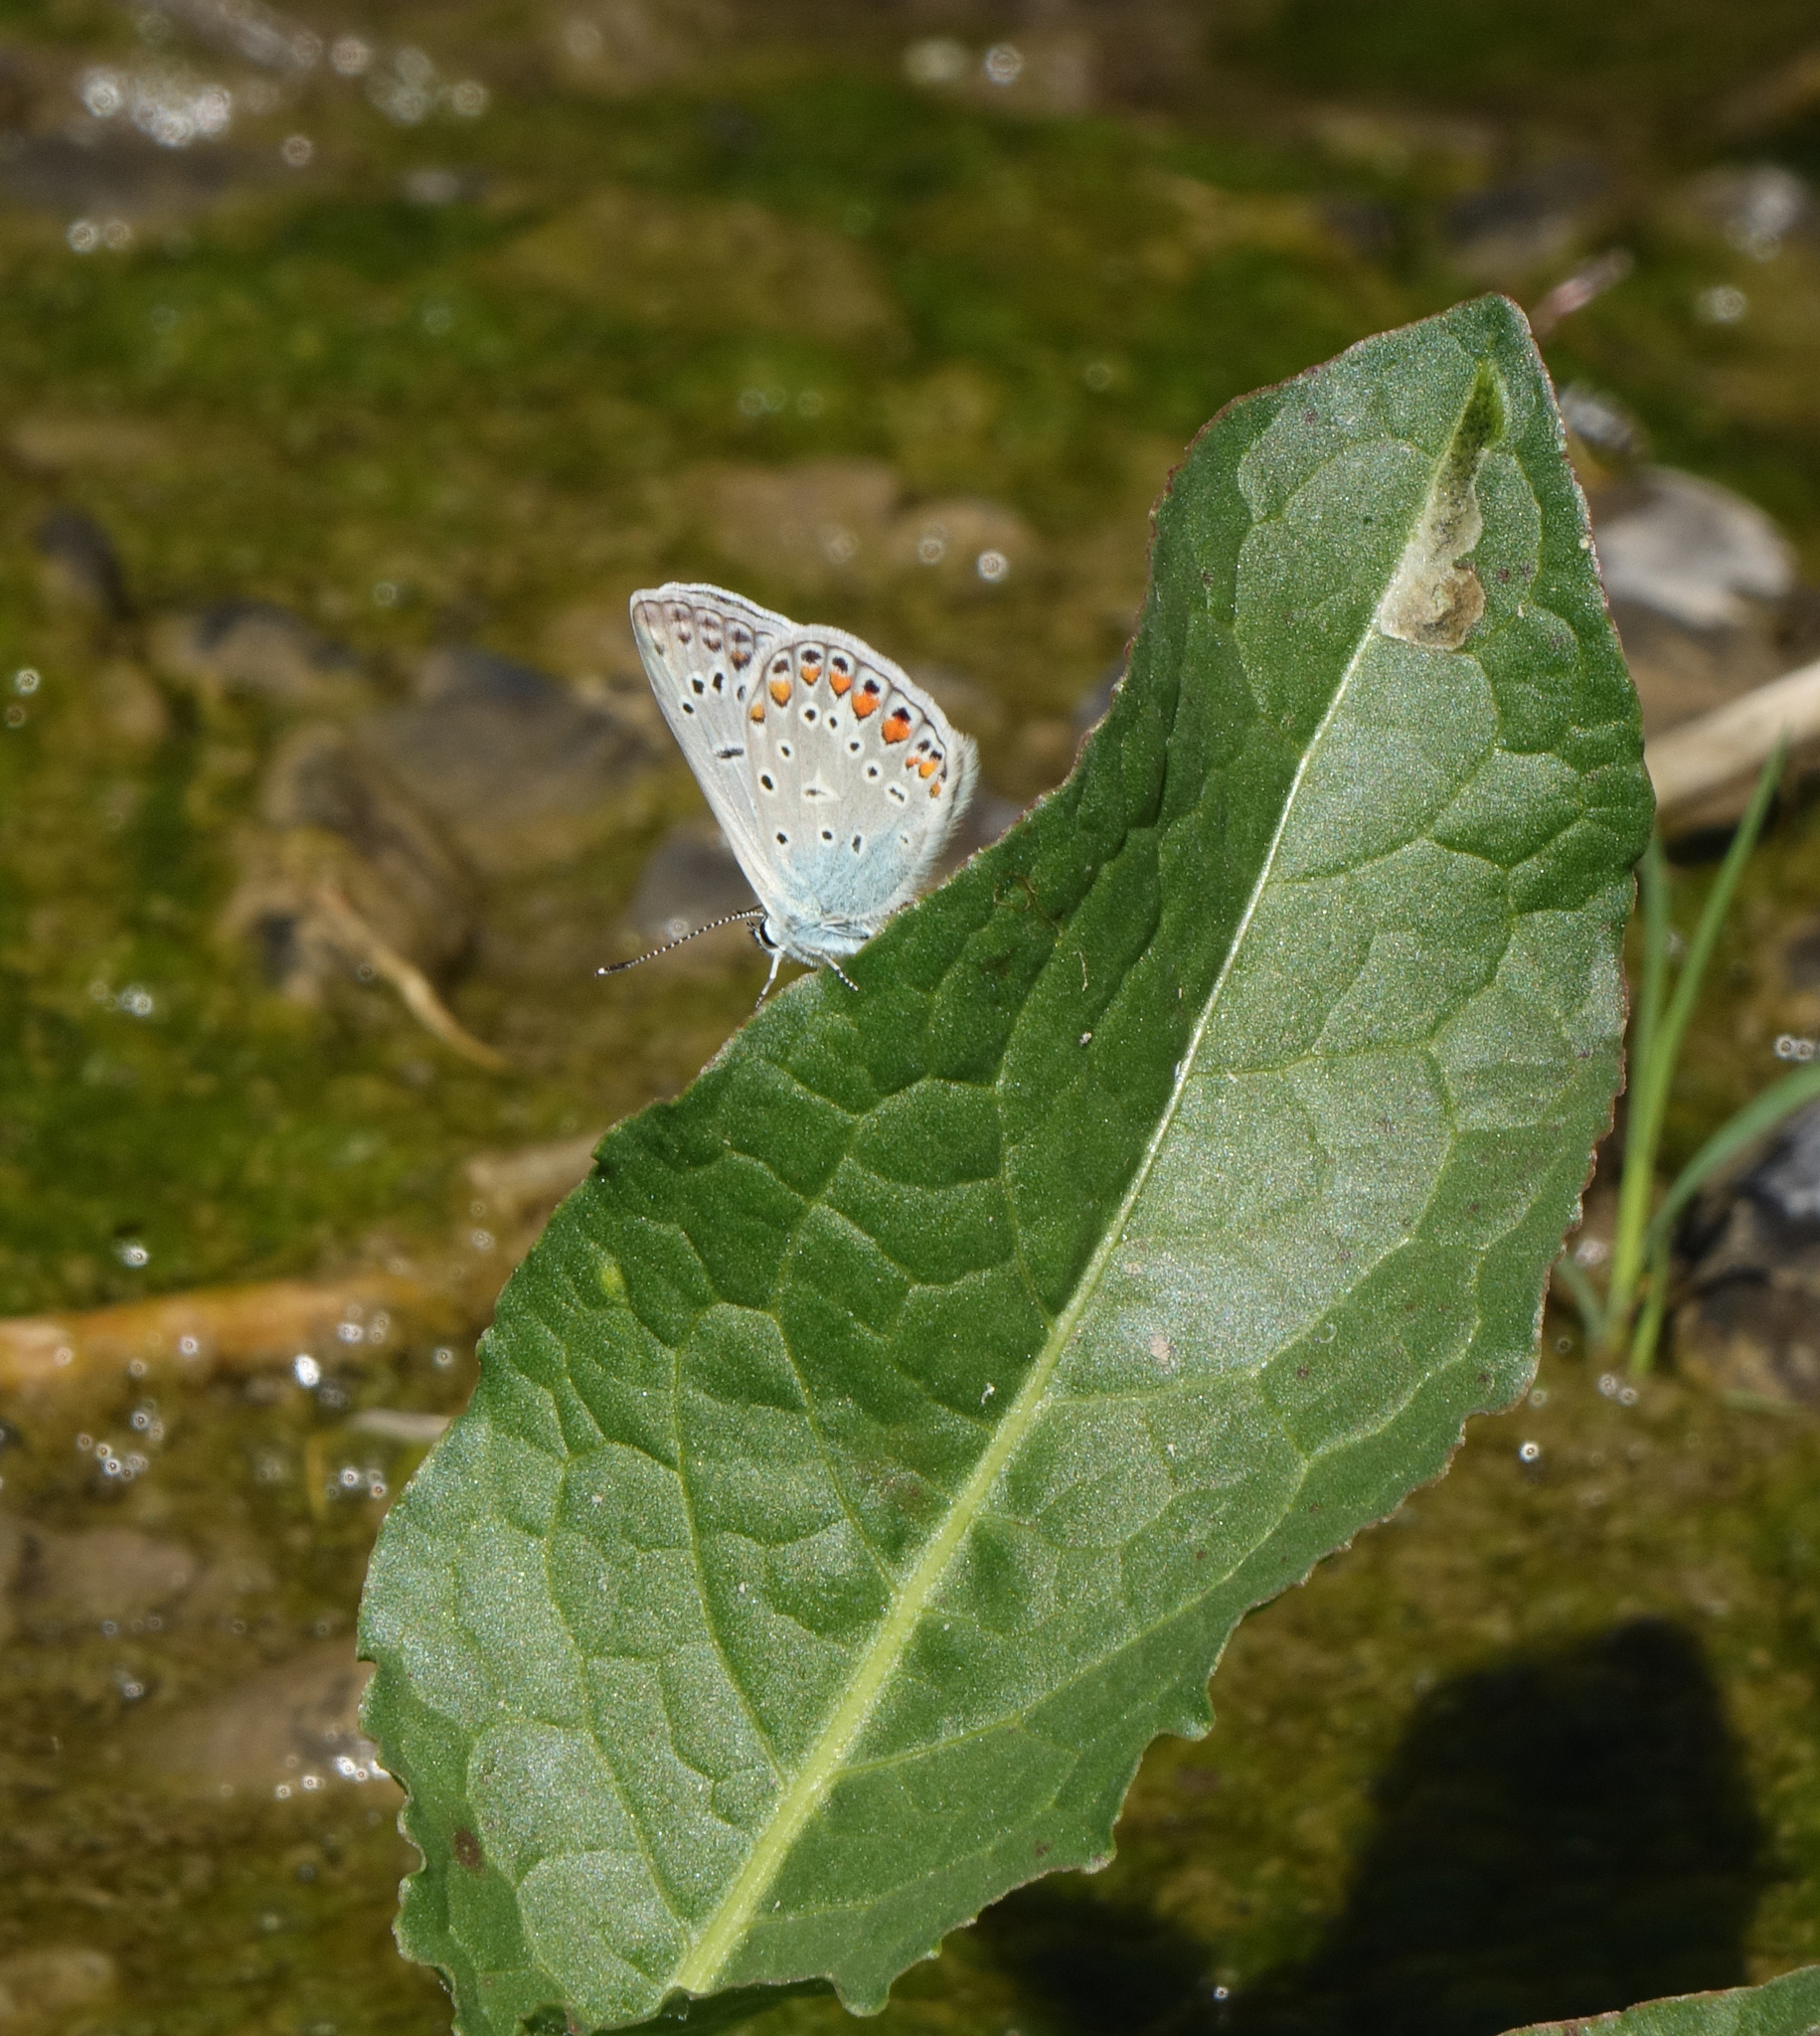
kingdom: Animalia
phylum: Arthropoda
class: Insecta
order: Lepidoptera
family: Lycaenidae
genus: Polyommatus
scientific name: Polyommatus icarus
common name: Common blue
